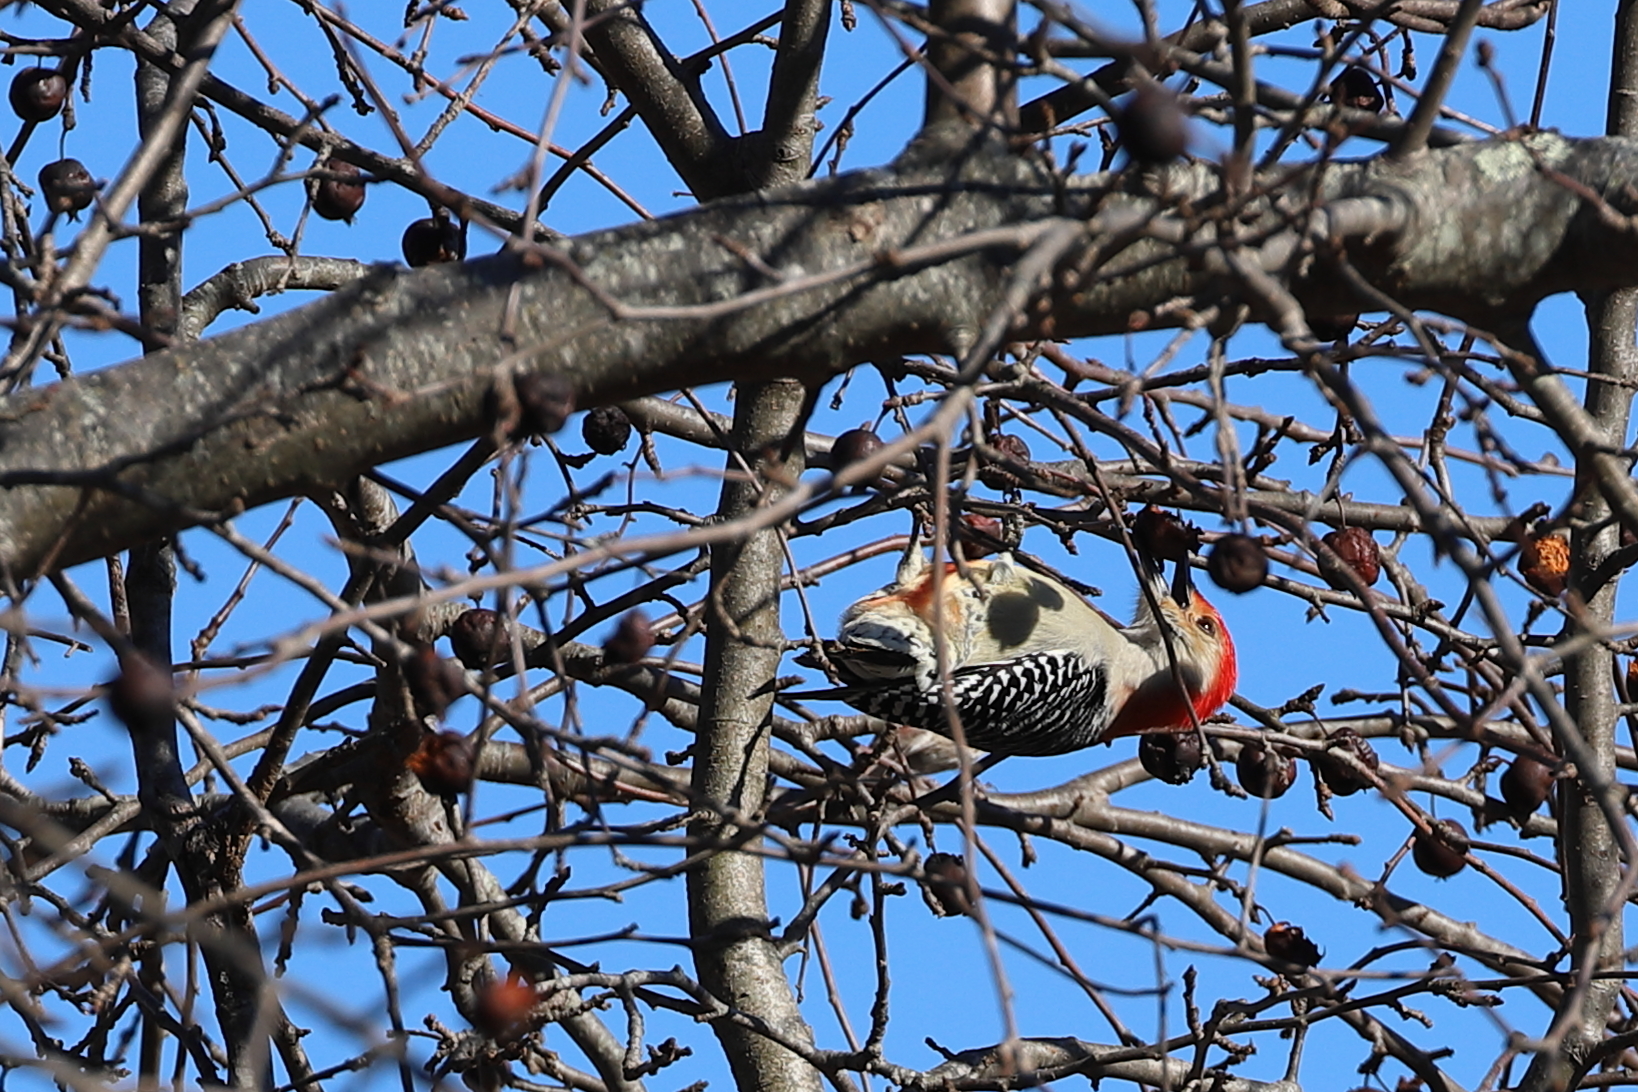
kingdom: Animalia
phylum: Chordata
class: Aves
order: Piciformes
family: Picidae
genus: Melanerpes
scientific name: Melanerpes carolinus
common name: Red-bellied woodpecker
